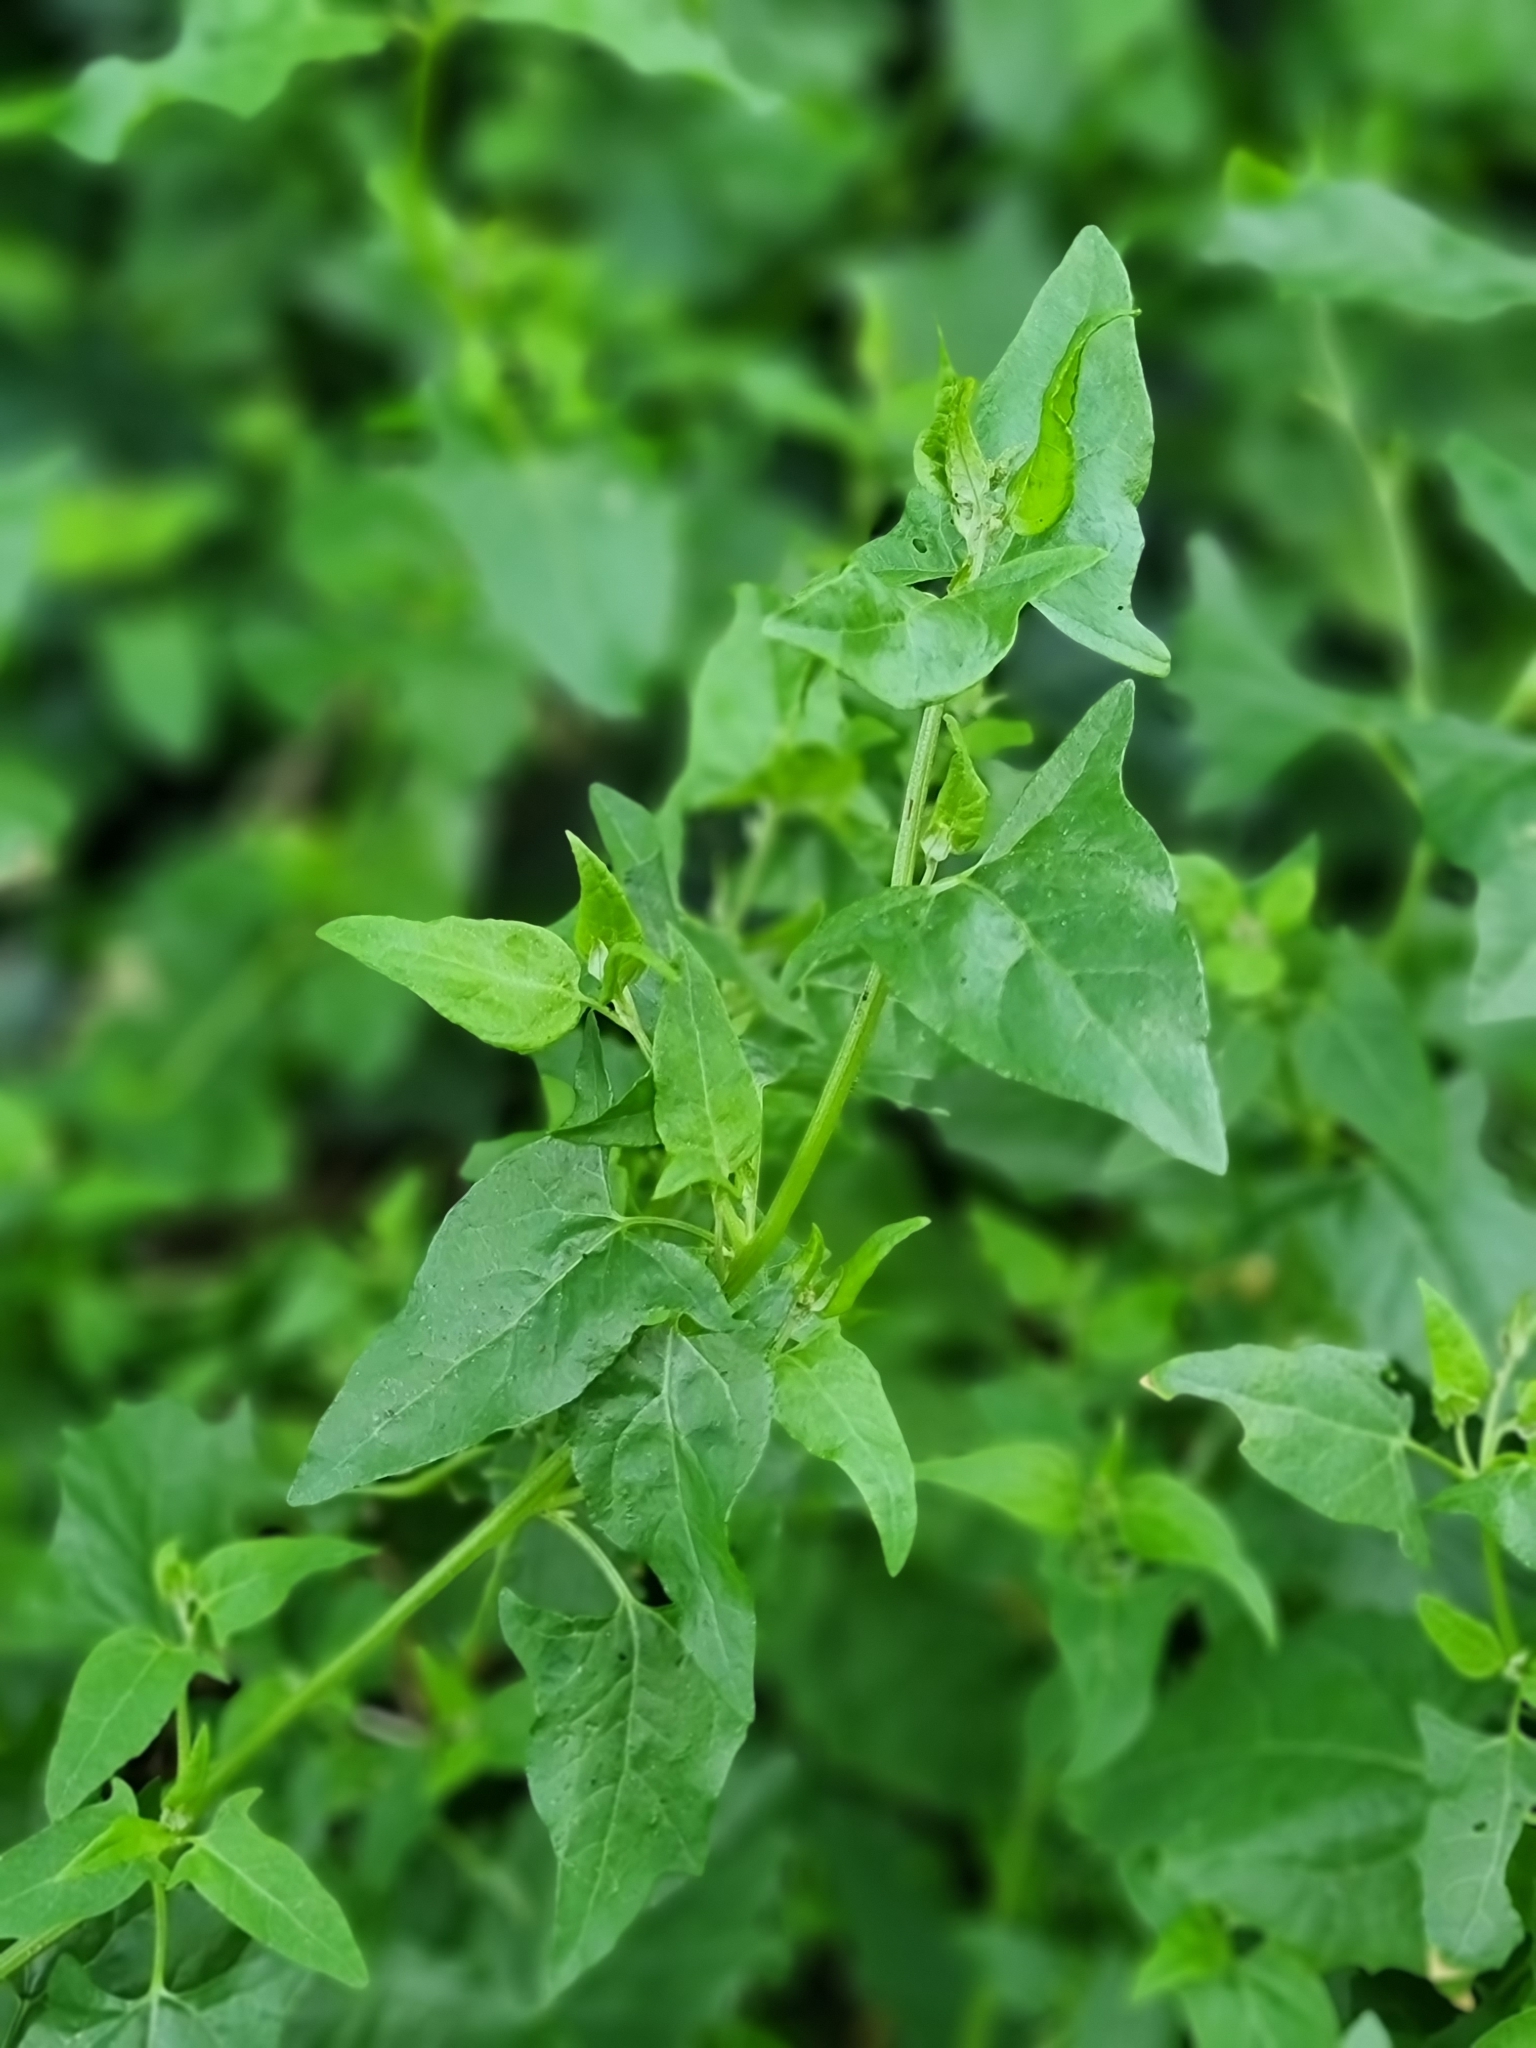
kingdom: Plantae
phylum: Tracheophyta
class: Magnoliopsida
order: Caryophyllales
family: Amaranthaceae
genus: Atriplex
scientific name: Atriplex prostrata
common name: Spear-leaved orache
